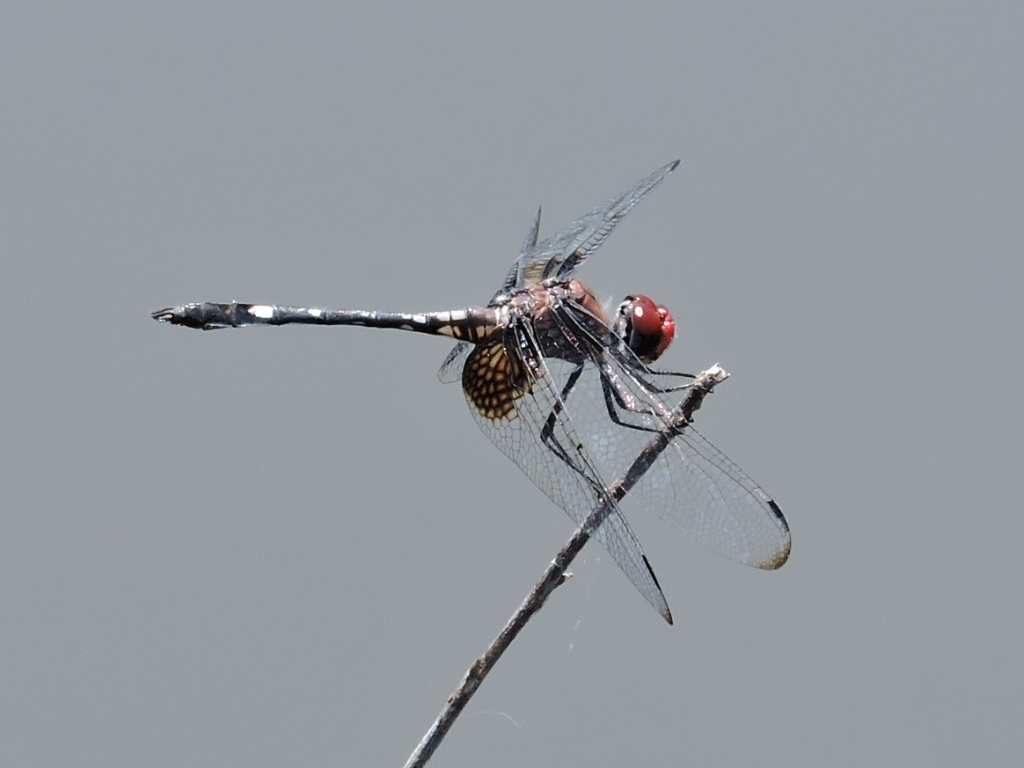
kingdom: Animalia
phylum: Arthropoda
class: Insecta
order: Odonata
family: Libellulidae
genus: Dythemis
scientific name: Dythemis fugax
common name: Checkered setwing
